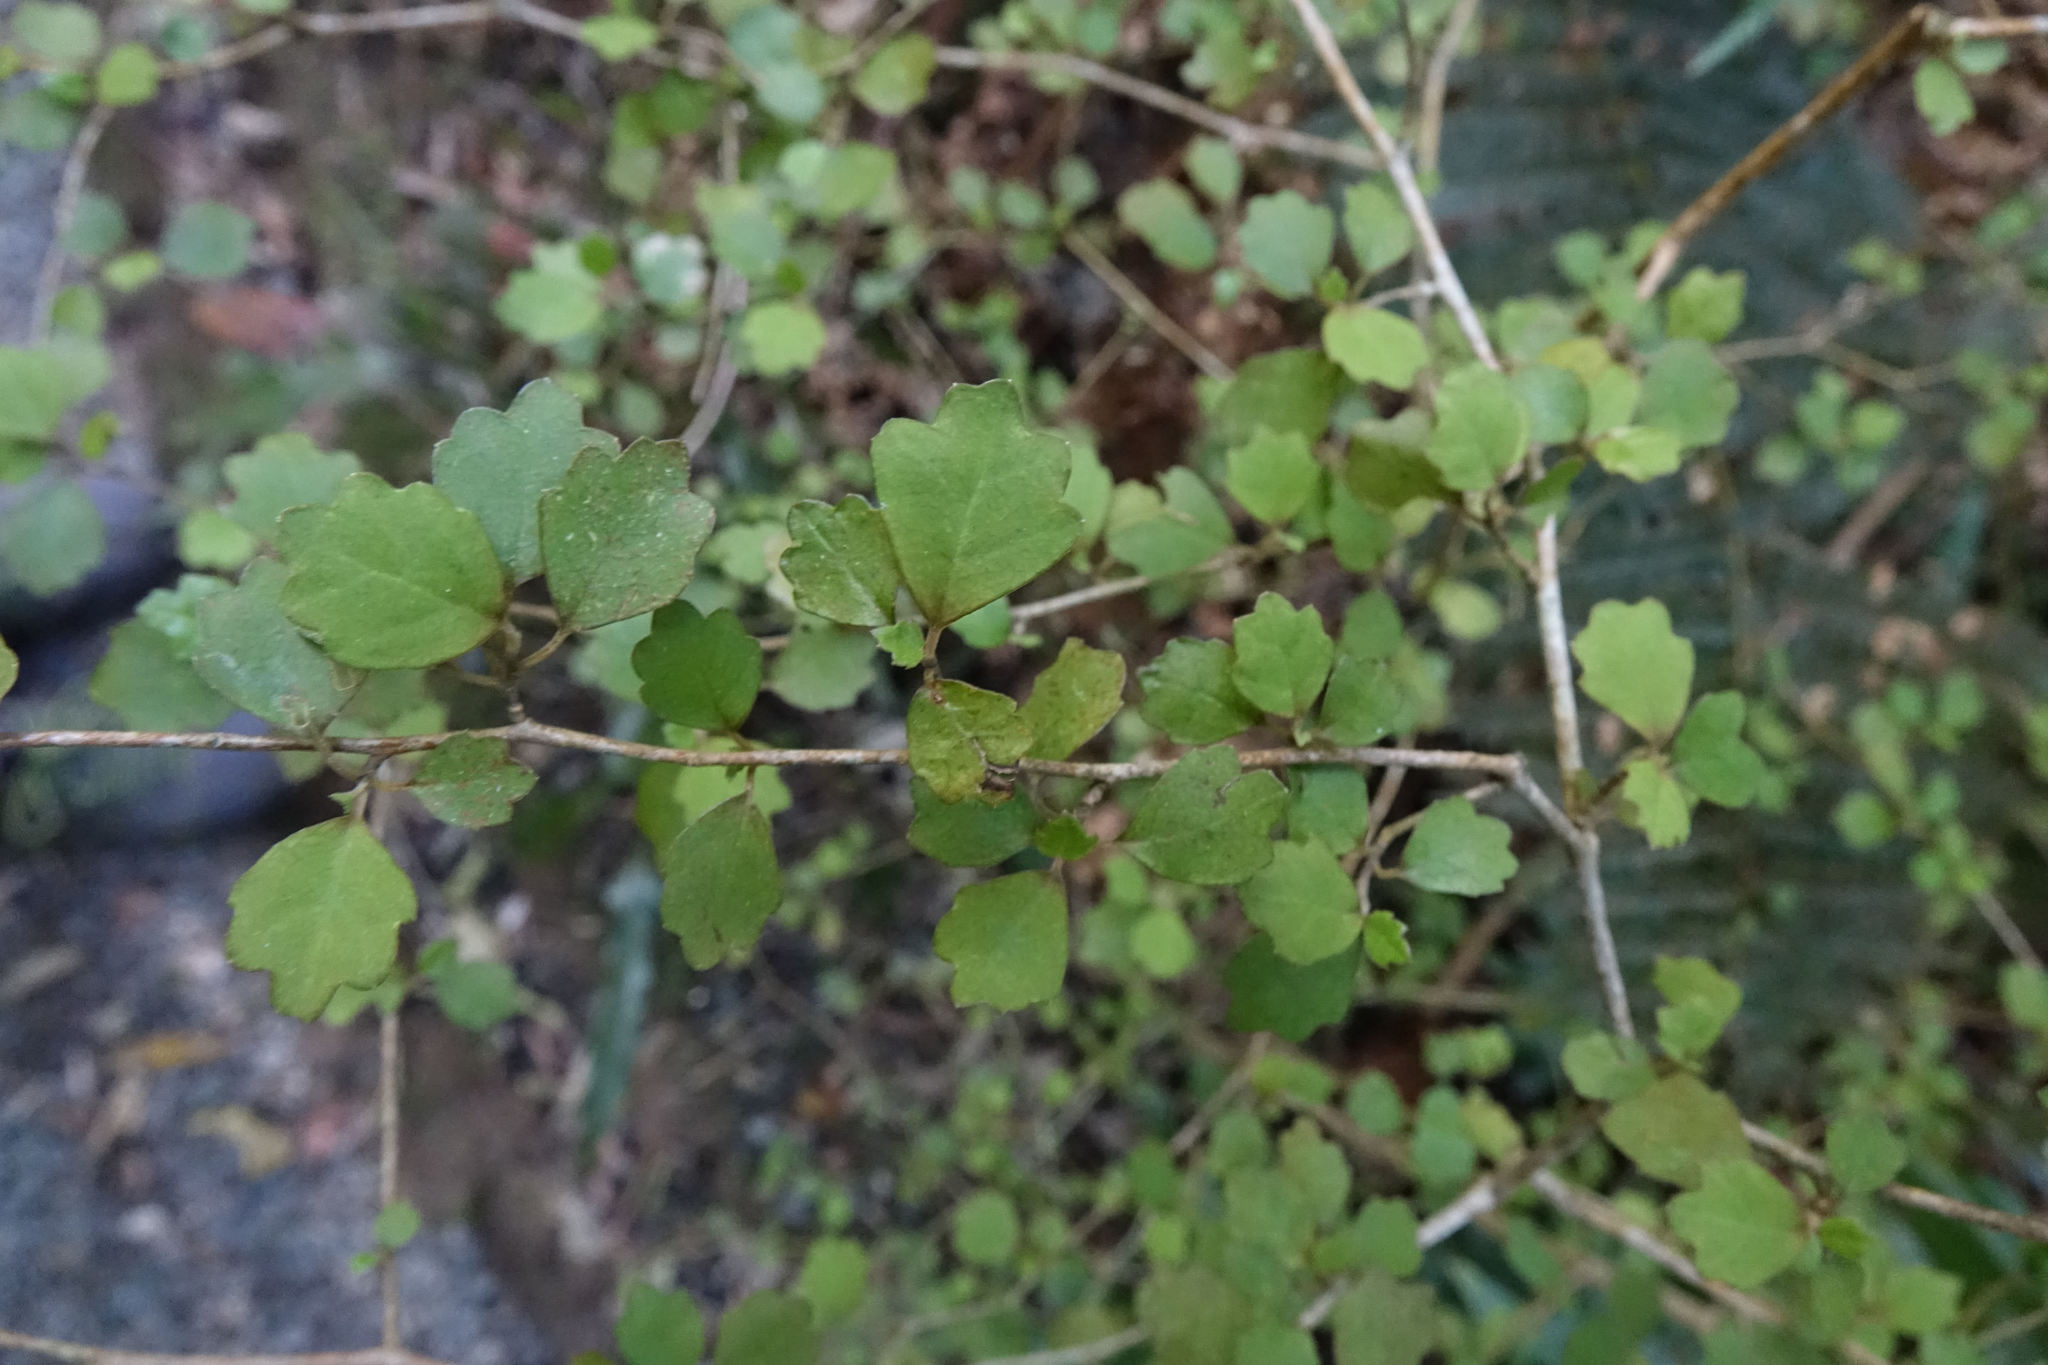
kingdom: Plantae
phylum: Tracheophyta
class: Magnoliopsida
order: Apiales
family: Pennantiaceae
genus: Pennantia
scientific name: Pennantia corymbosa
